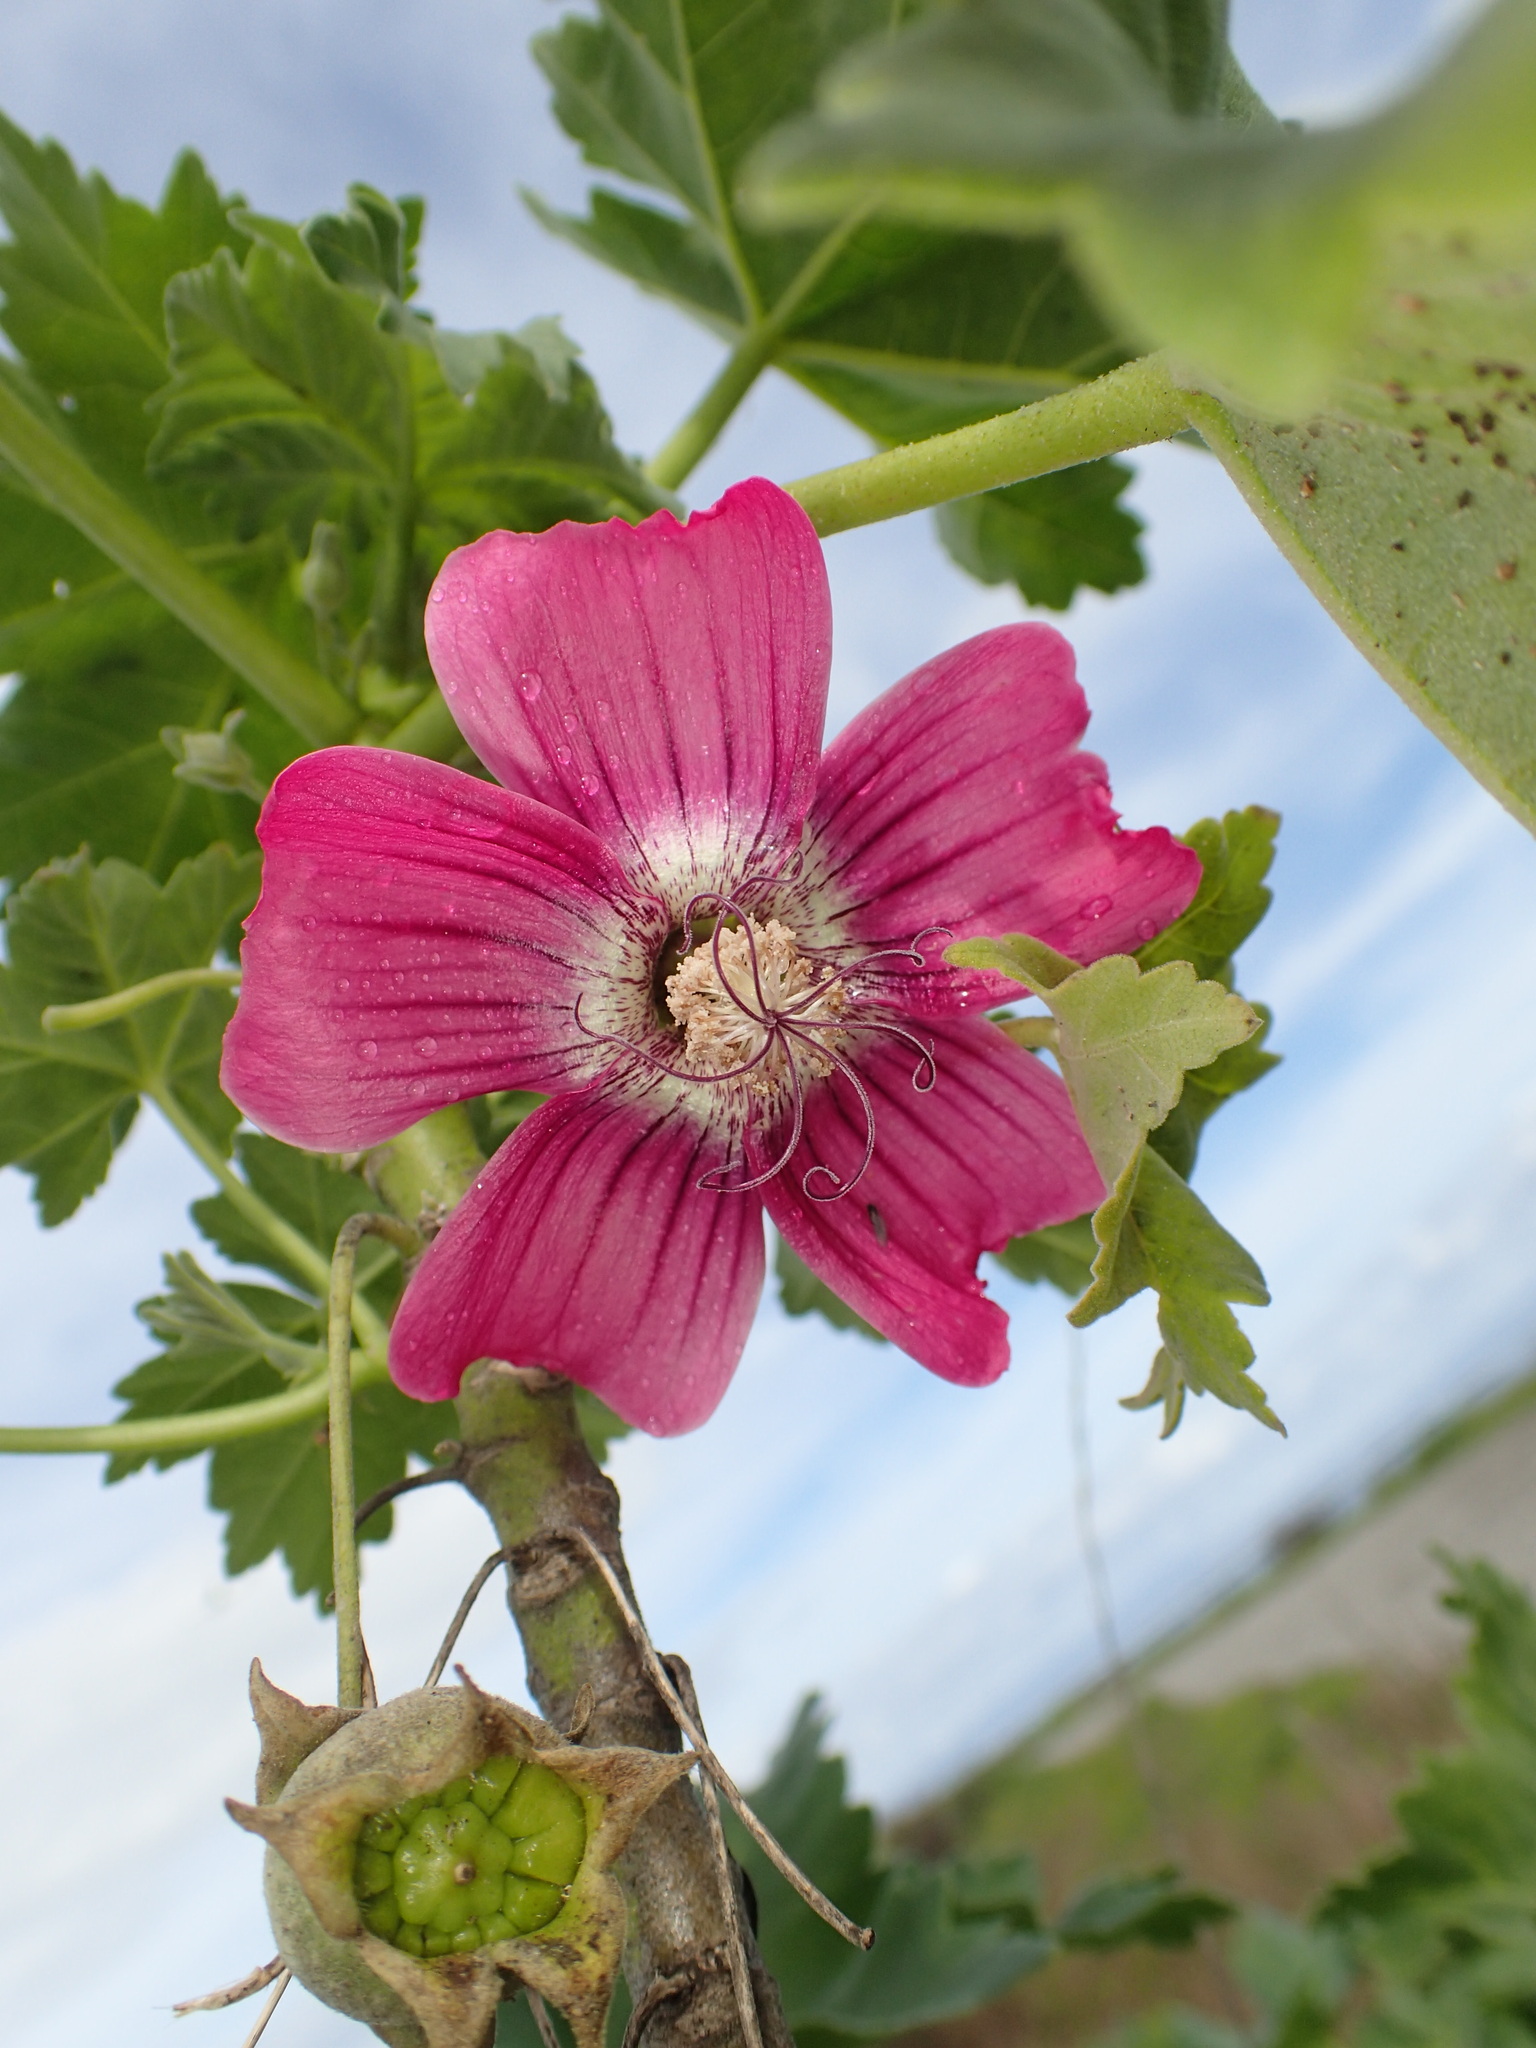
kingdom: Plantae
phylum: Tracheophyta
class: Magnoliopsida
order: Malvales
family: Malvaceae
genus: Malva
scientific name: Malva assurgentiflora
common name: Island mallow
